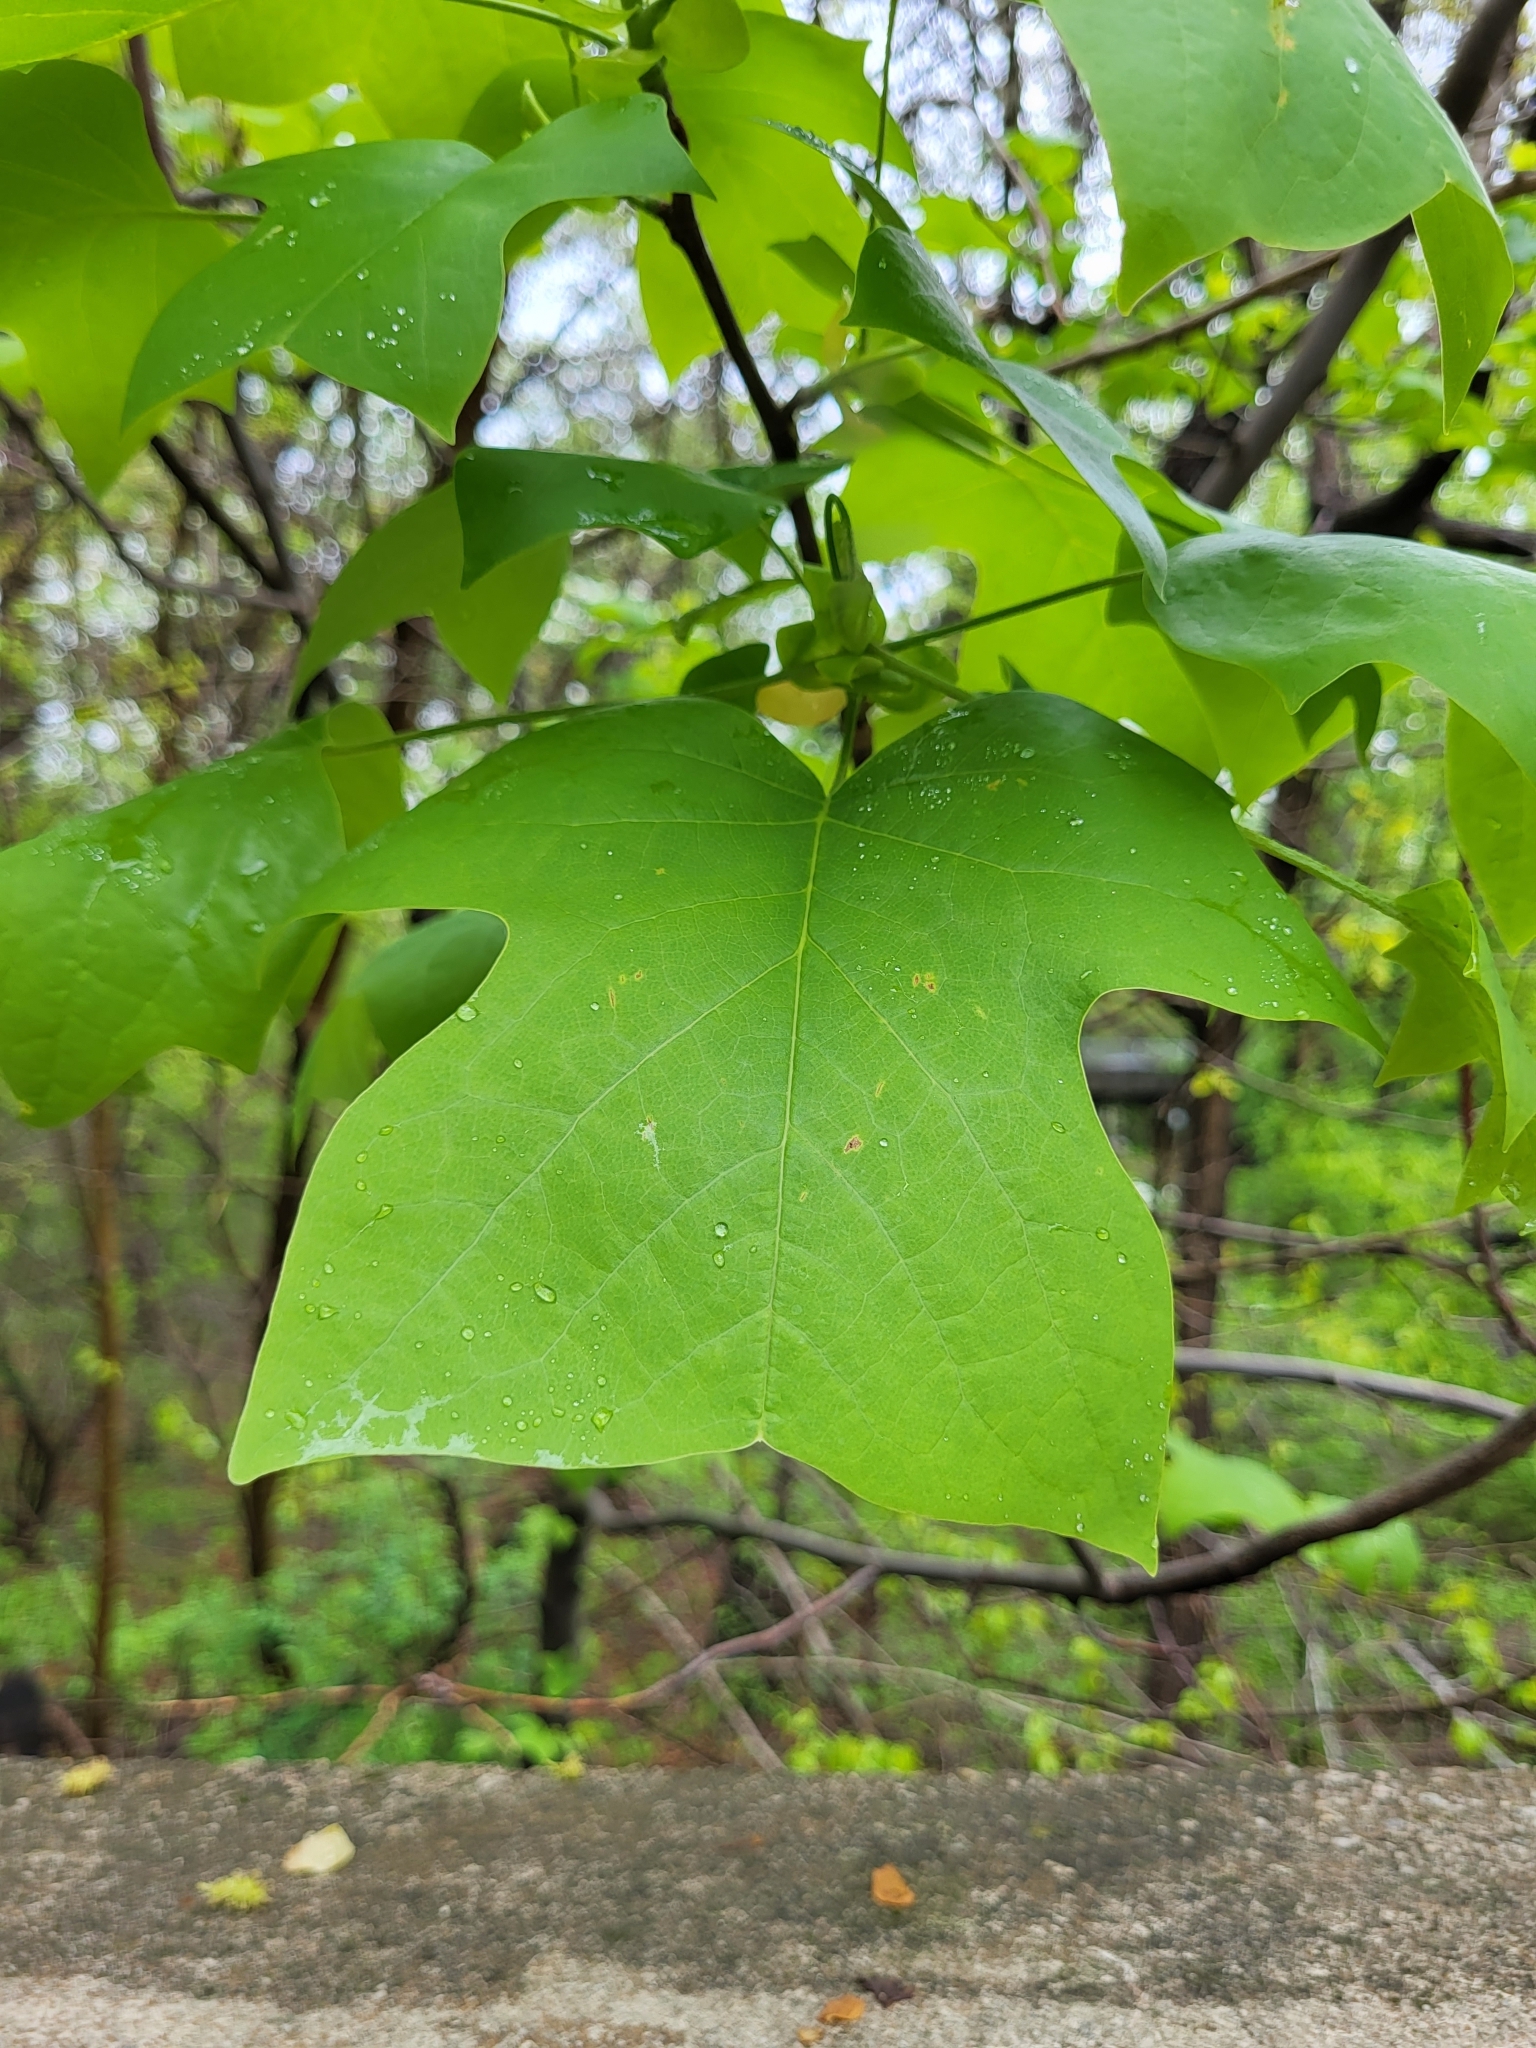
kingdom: Plantae
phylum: Tracheophyta
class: Magnoliopsida
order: Magnoliales
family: Magnoliaceae
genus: Liriodendron
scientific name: Liriodendron tulipifera
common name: Tulip tree
